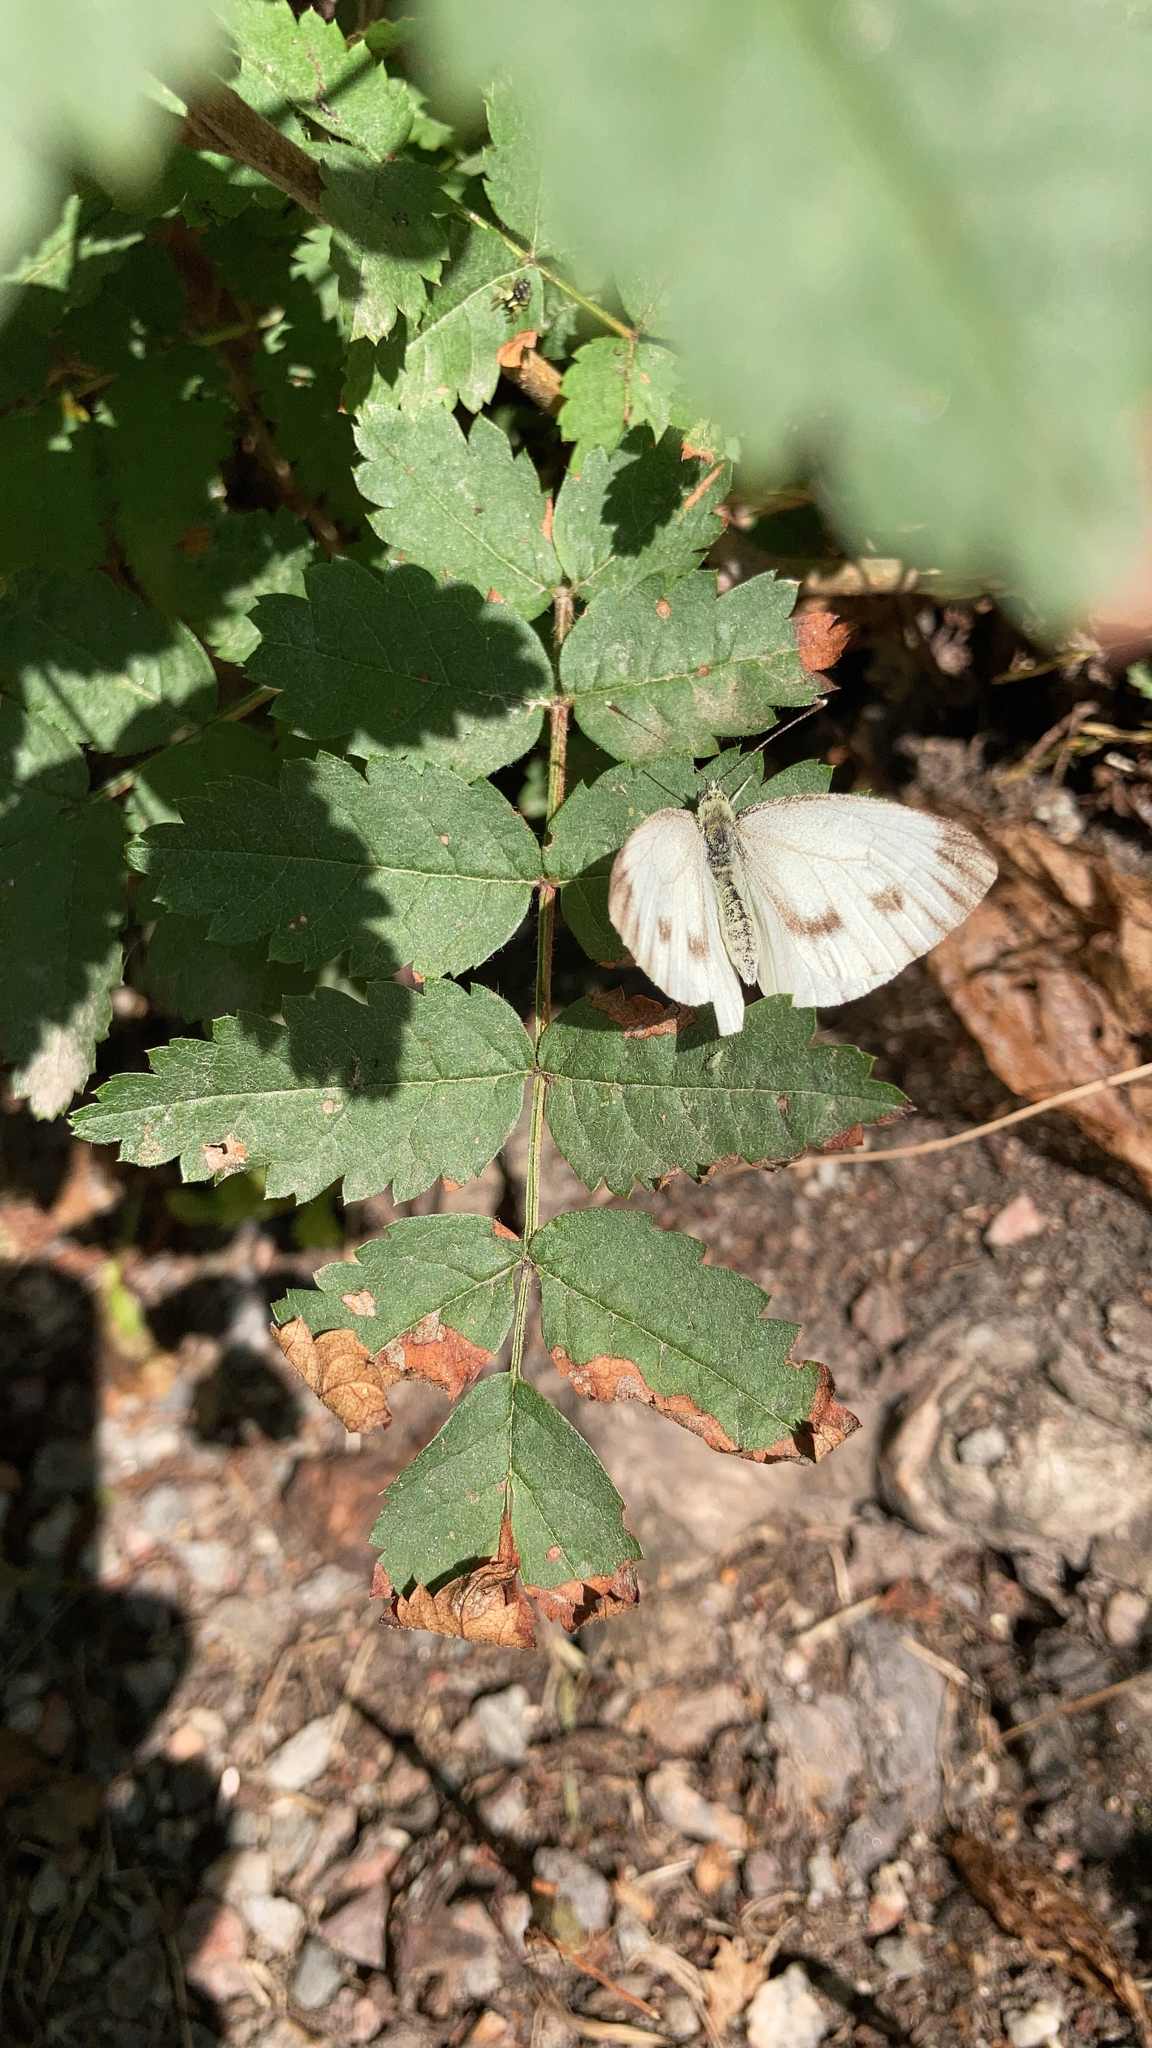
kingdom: Animalia
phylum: Arthropoda
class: Insecta
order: Lepidoptera
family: Pieridae
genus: Pieris
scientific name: Pieris napi
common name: Green-veined white
